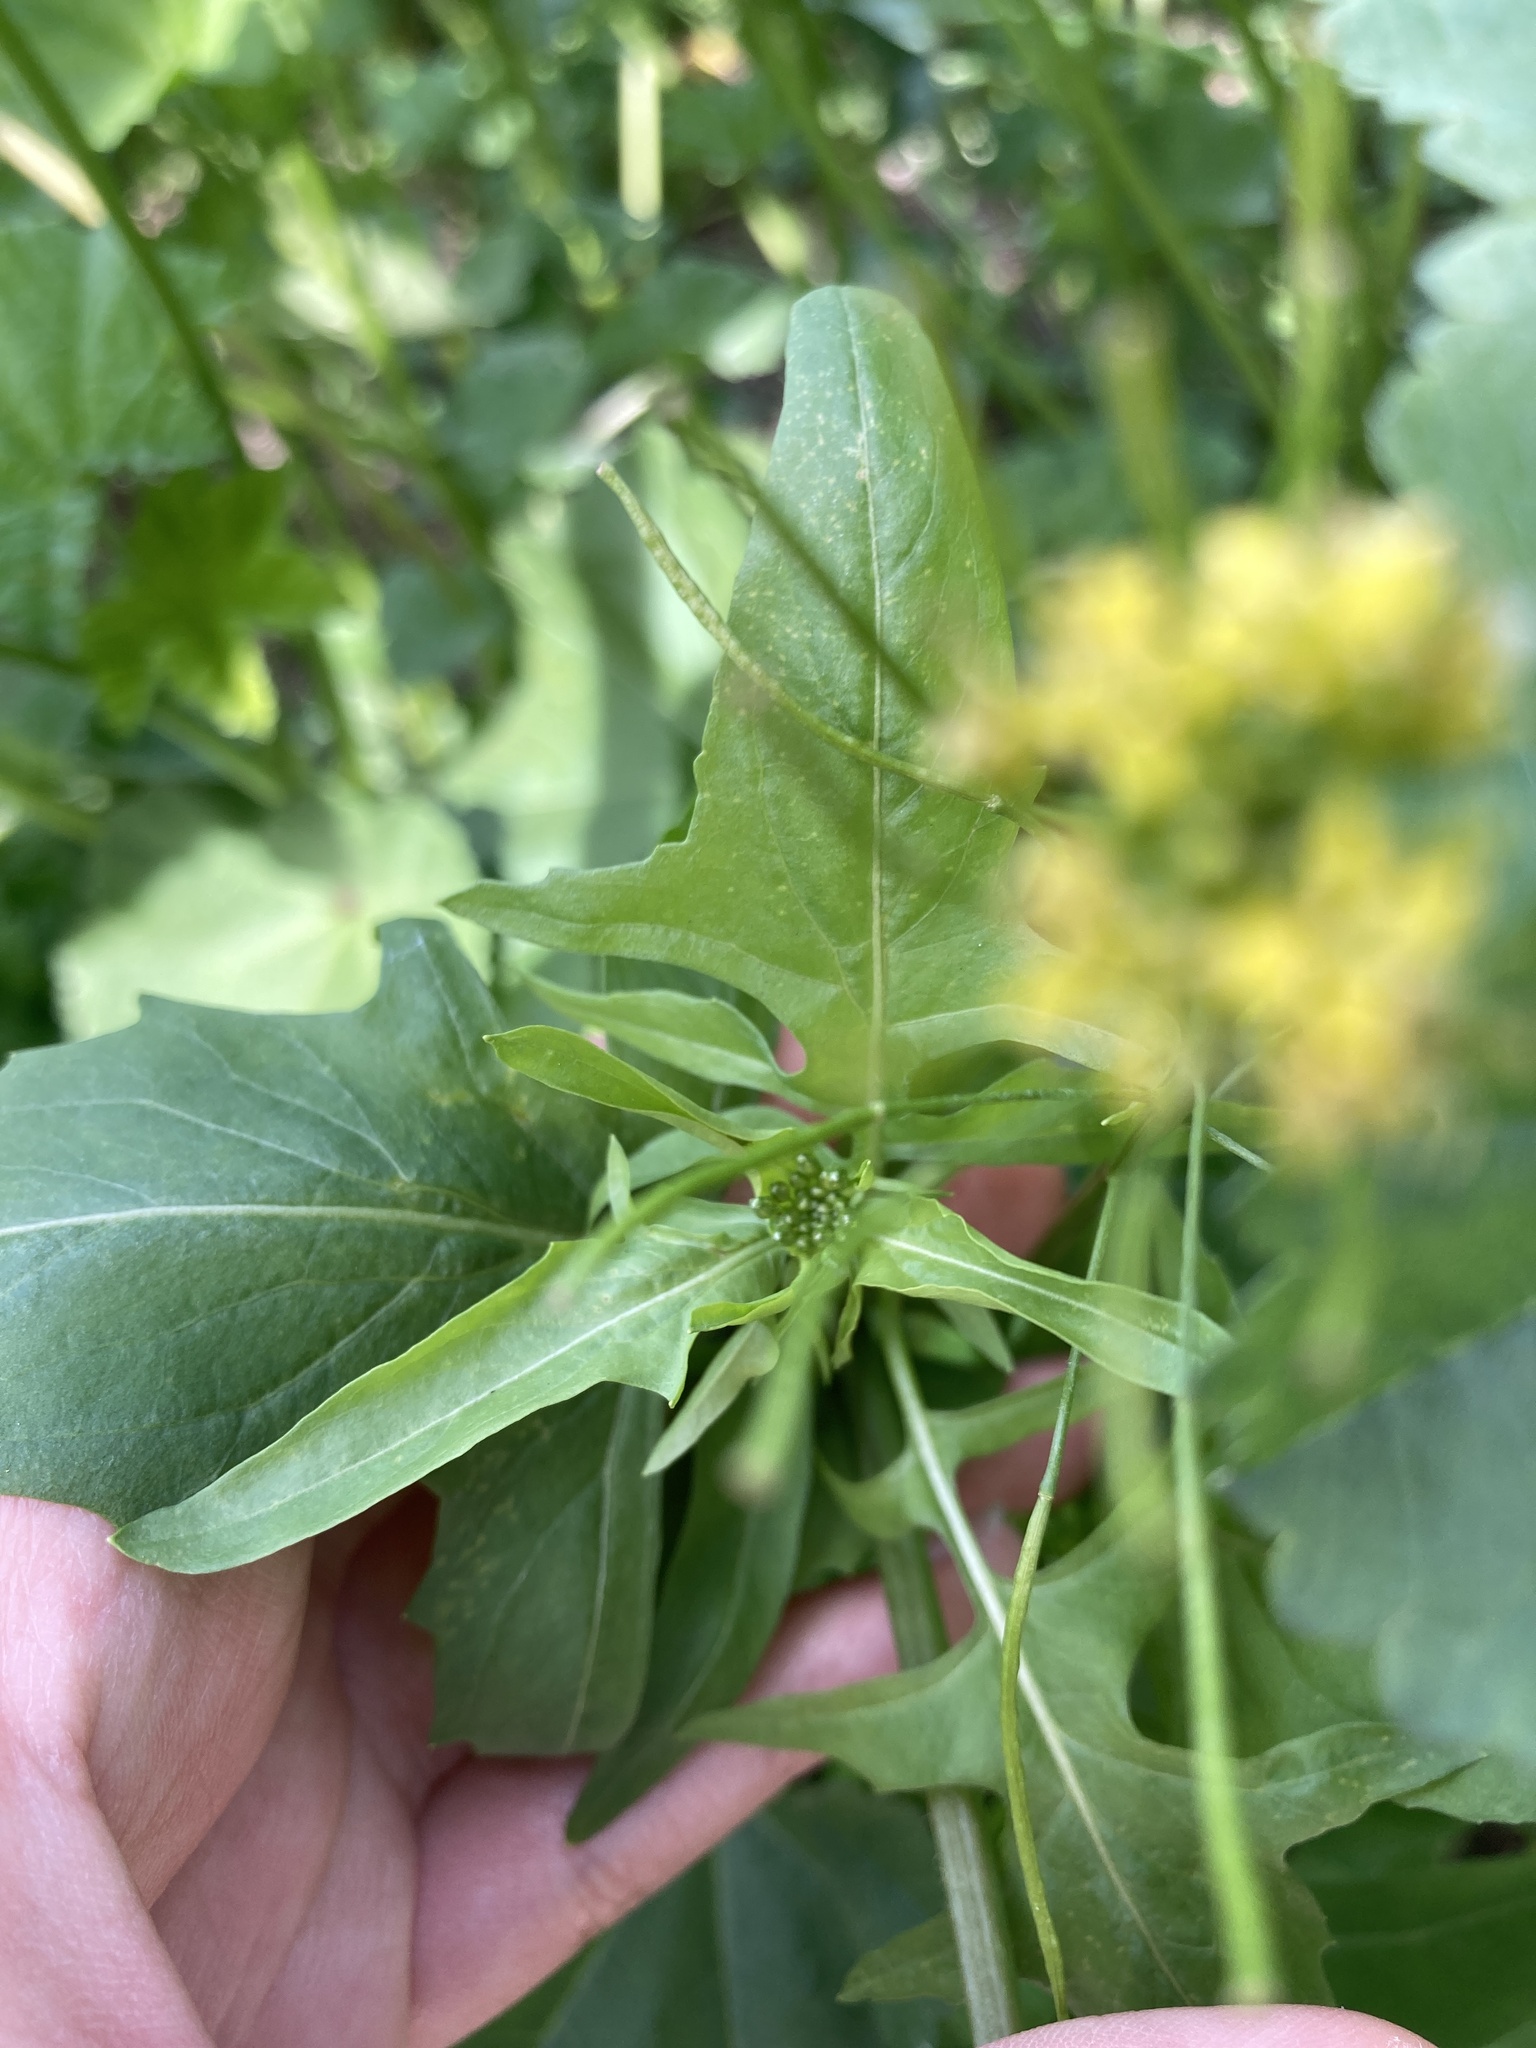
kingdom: Plantae
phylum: Tracheophyta
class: Magnoliopsida
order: Brassicales
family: Brassicaceae
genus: Sisymbrium
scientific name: Sisymbrium irio
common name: London rocket
